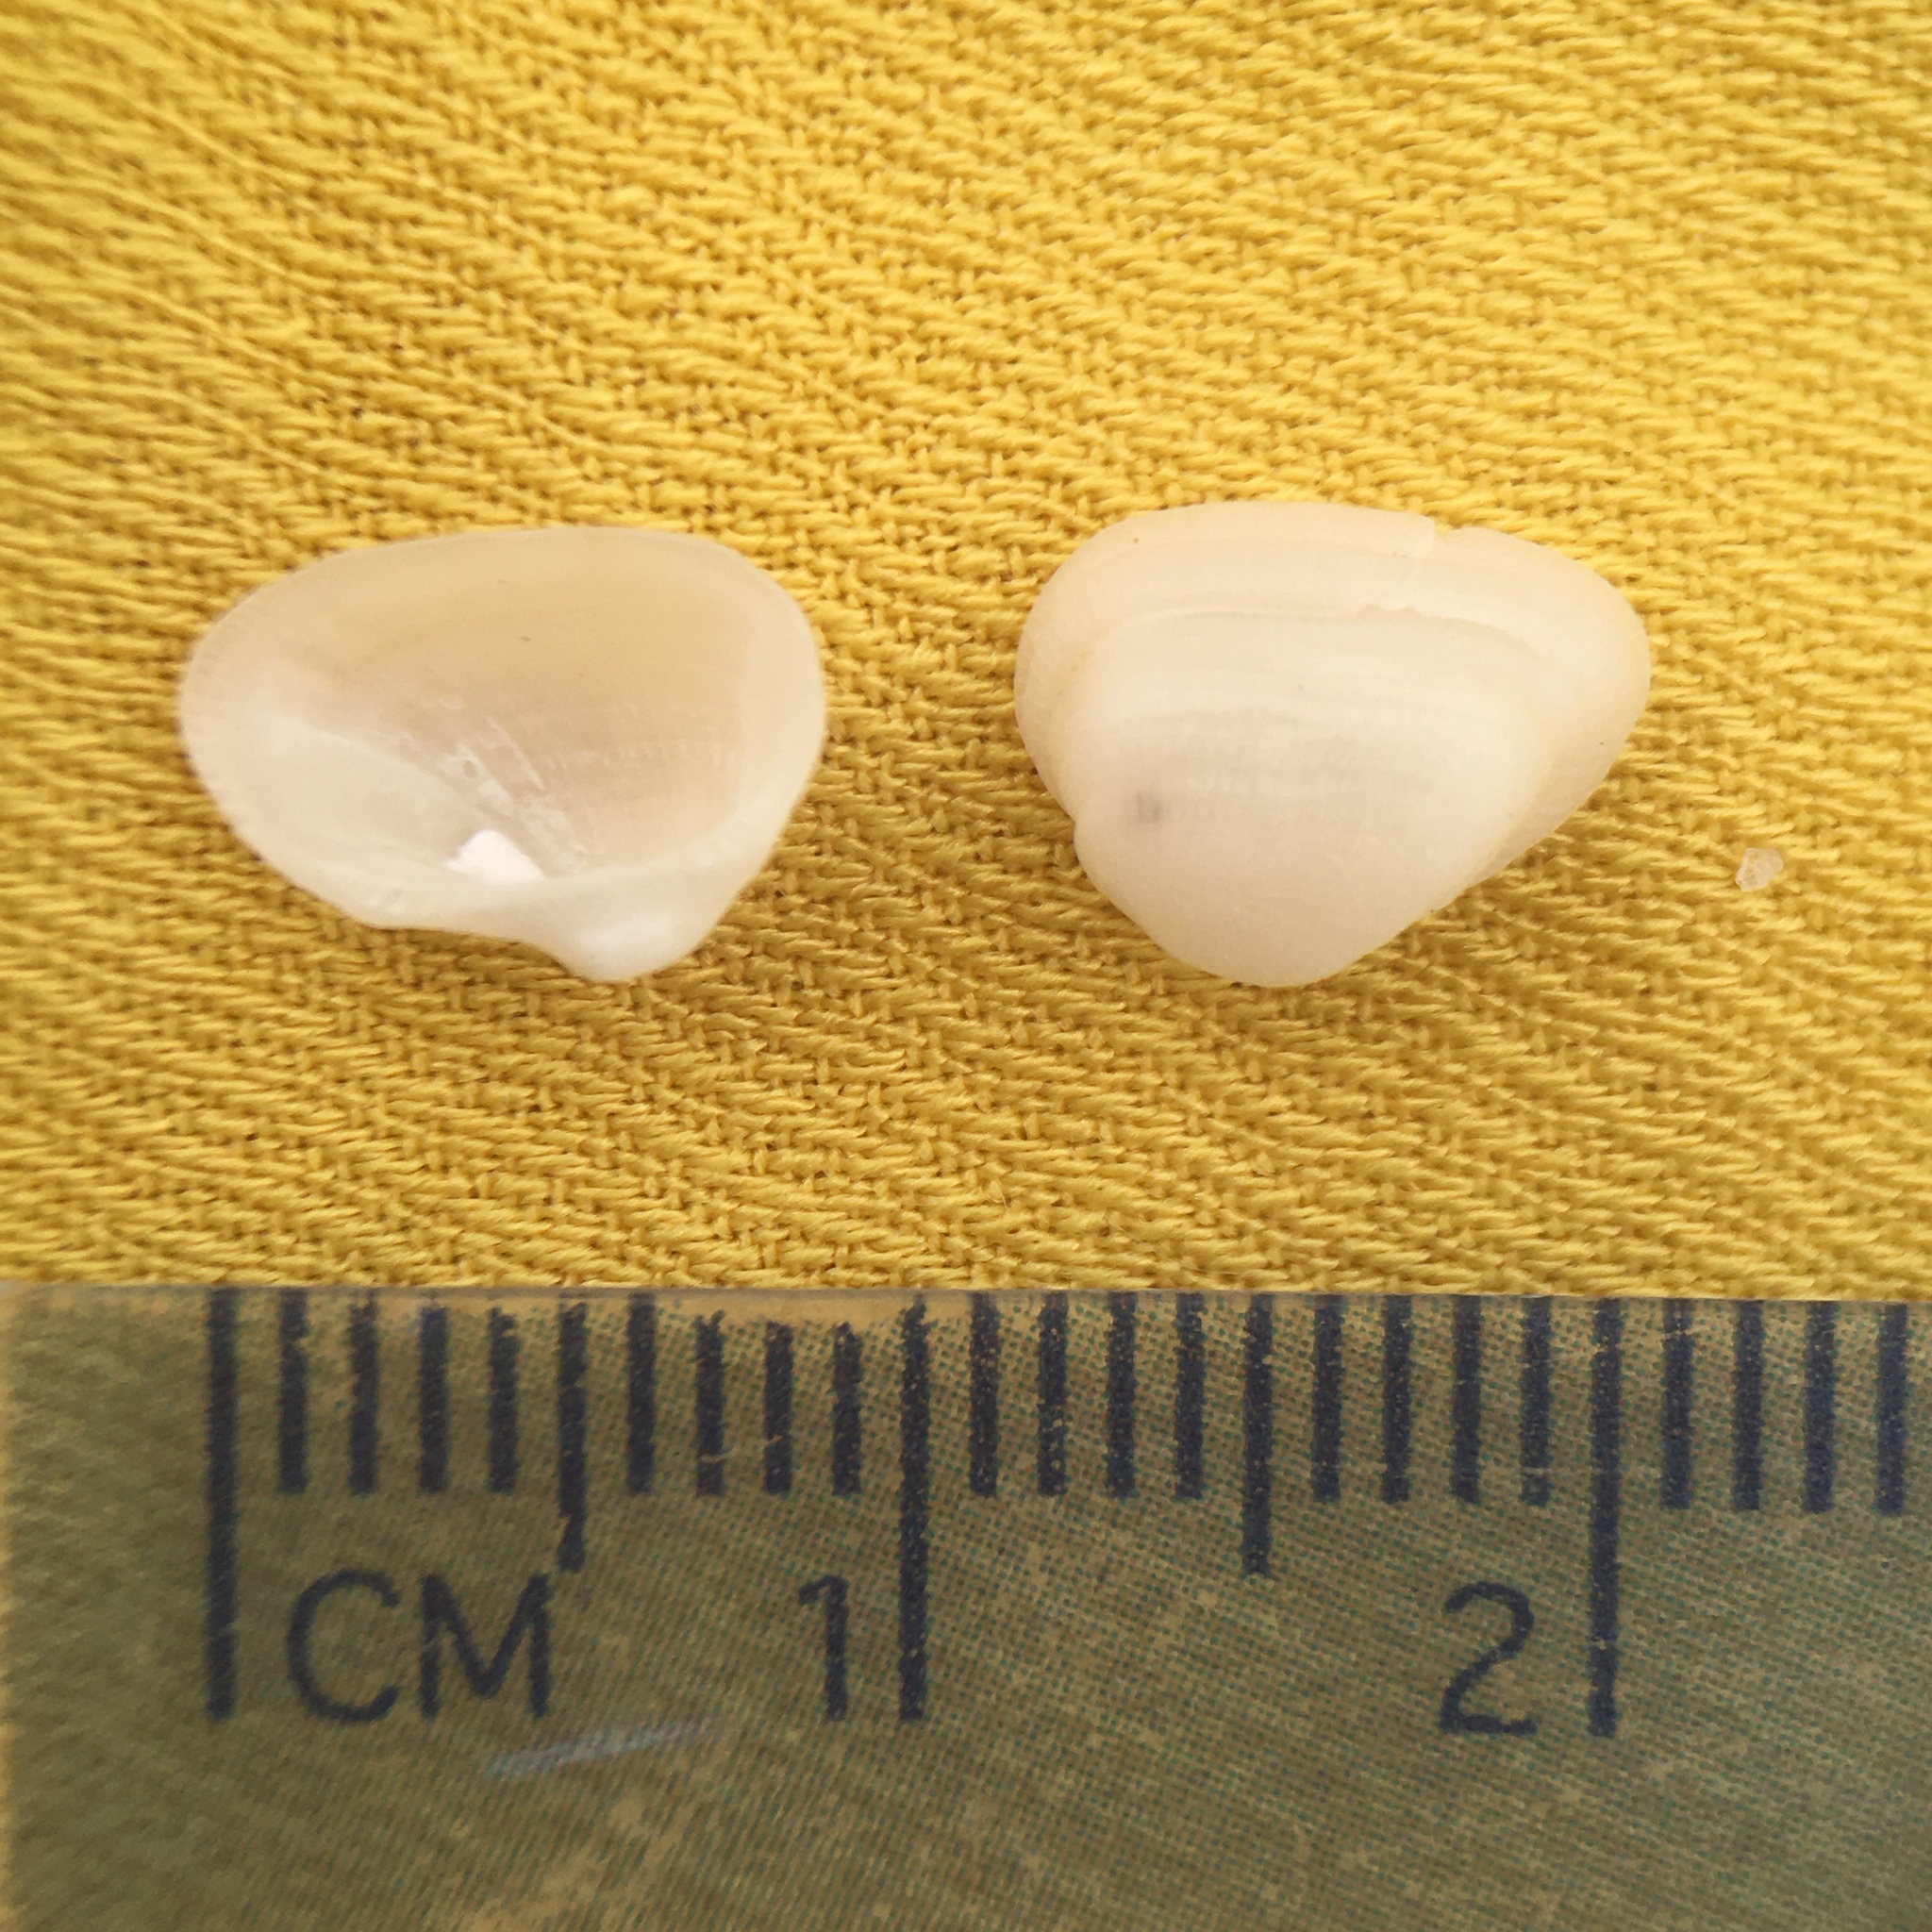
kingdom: Animalia
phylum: Mollusca
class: Bivalvia
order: Arcida
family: Noetiidae
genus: Striarca
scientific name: Striarca lactea
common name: Milky-white ark
